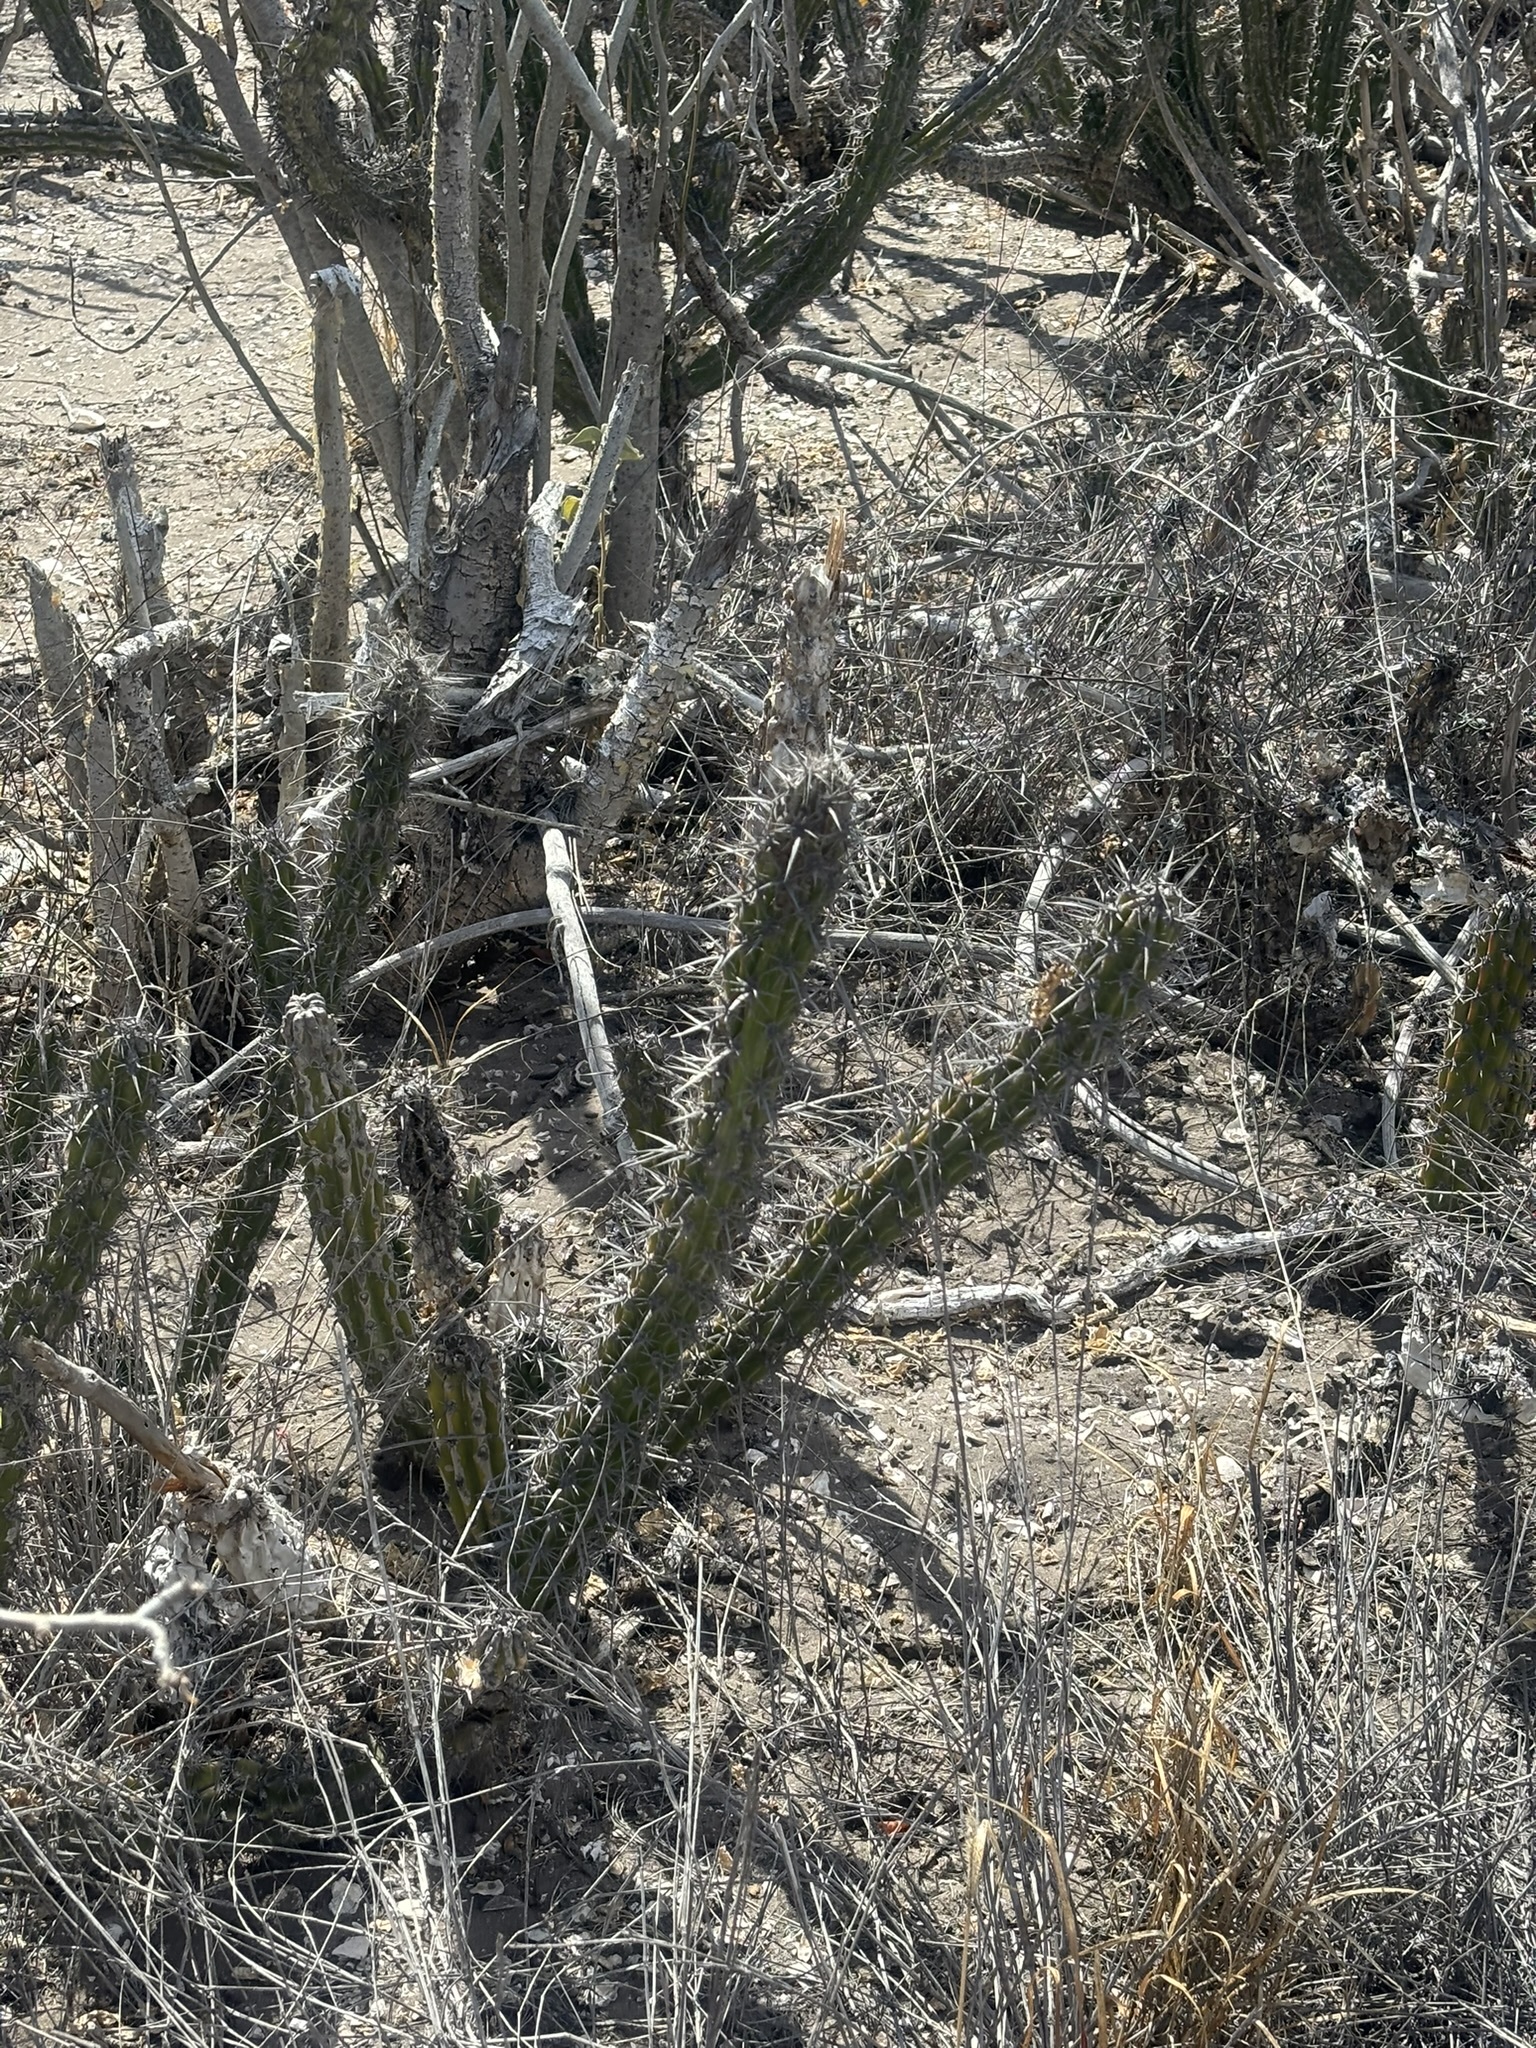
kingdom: Plantae
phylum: Tracheophyta
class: Magnoliopsida
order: Caryophyllales
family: Cactaceae
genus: Stenocereus
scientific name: Stenocereus gummosus
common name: Dagger cactus
